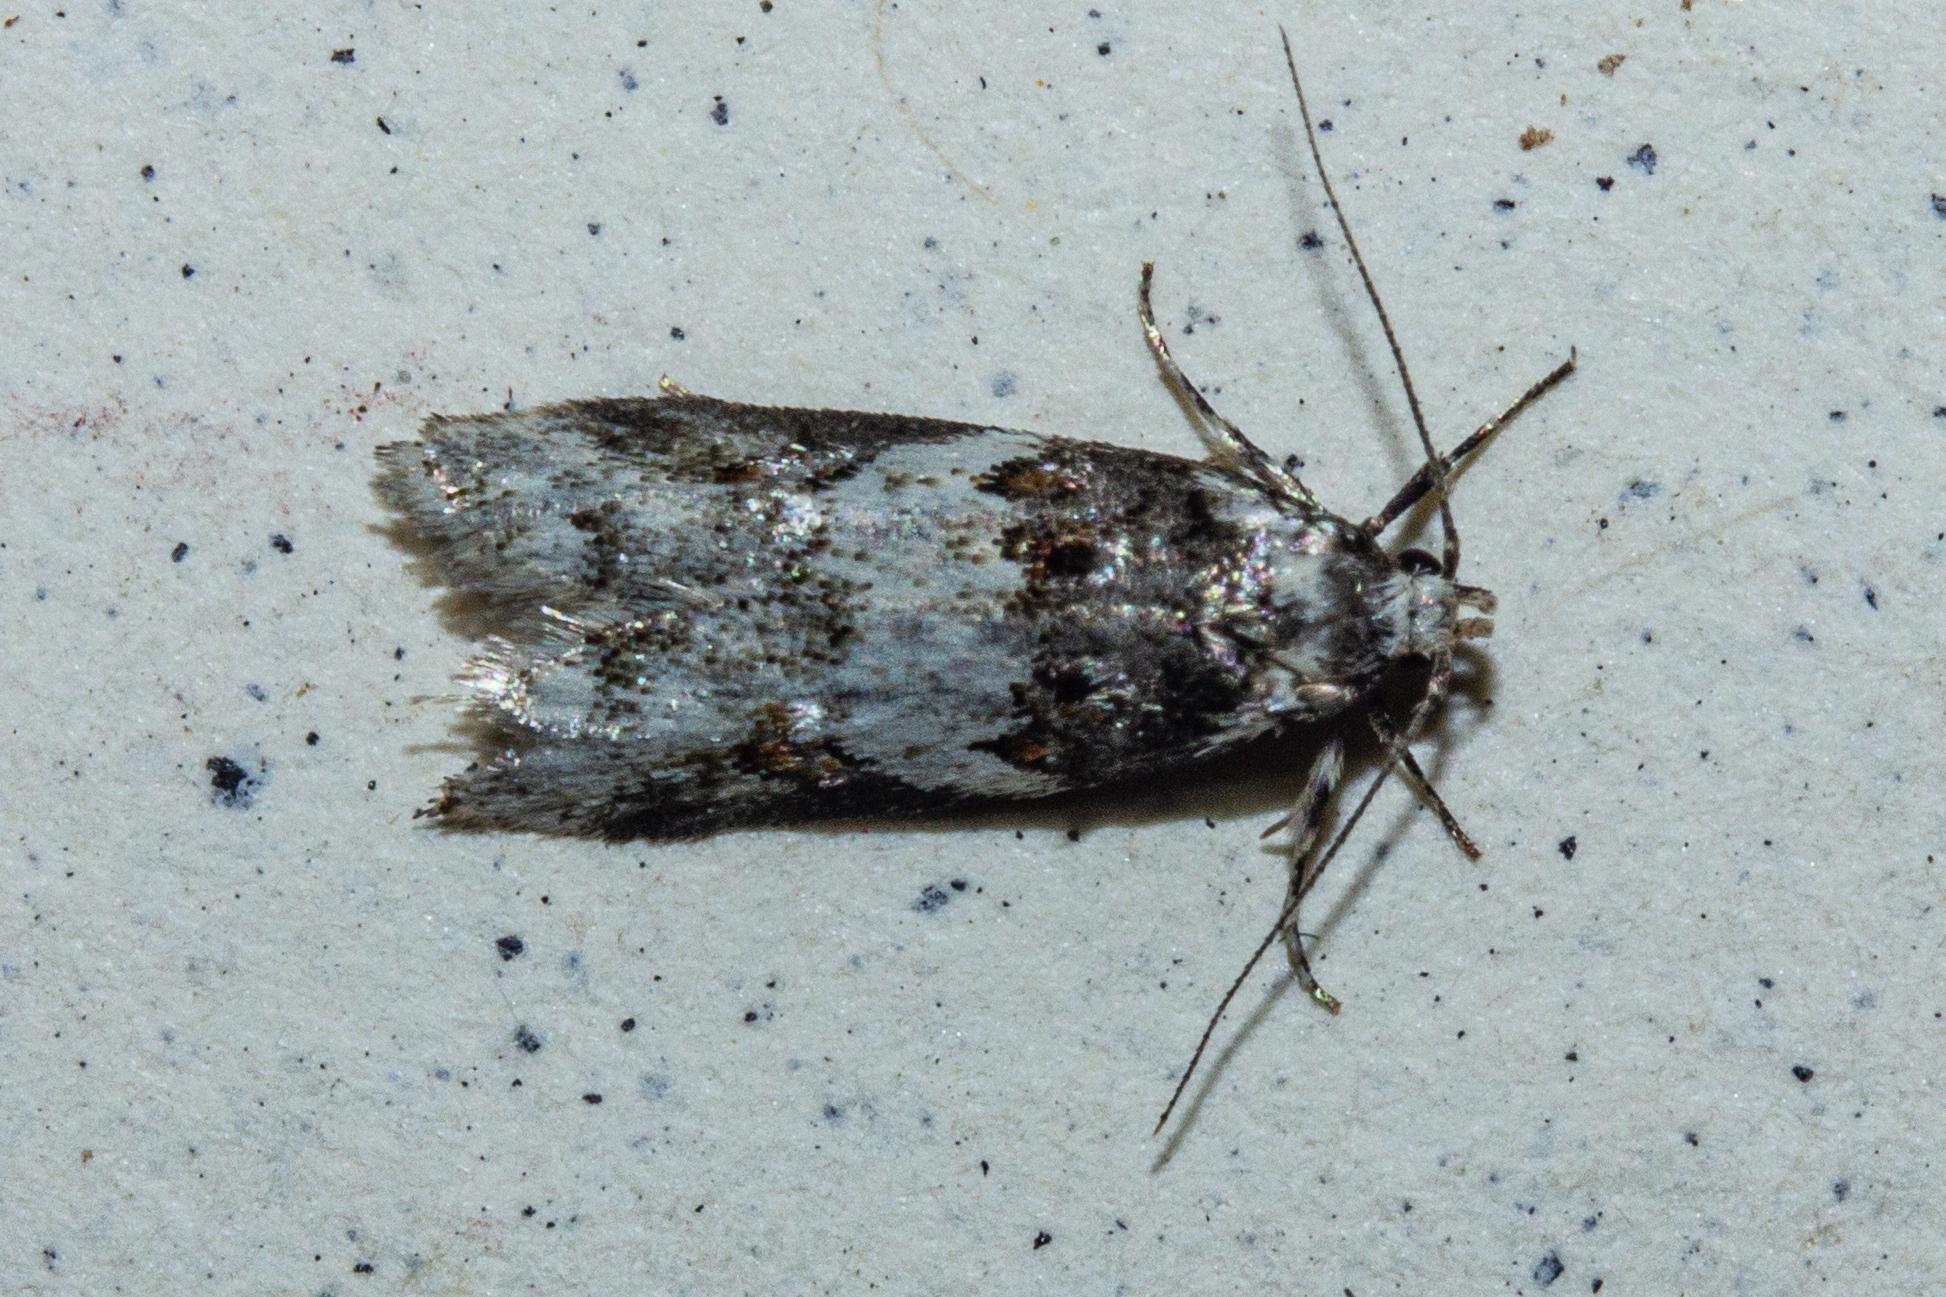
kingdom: Animalia
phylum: Arthropoda
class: Insecta
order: Lepidoptera
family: Oecophoridae
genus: Trachypepla
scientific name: Trachypepla galaxias
